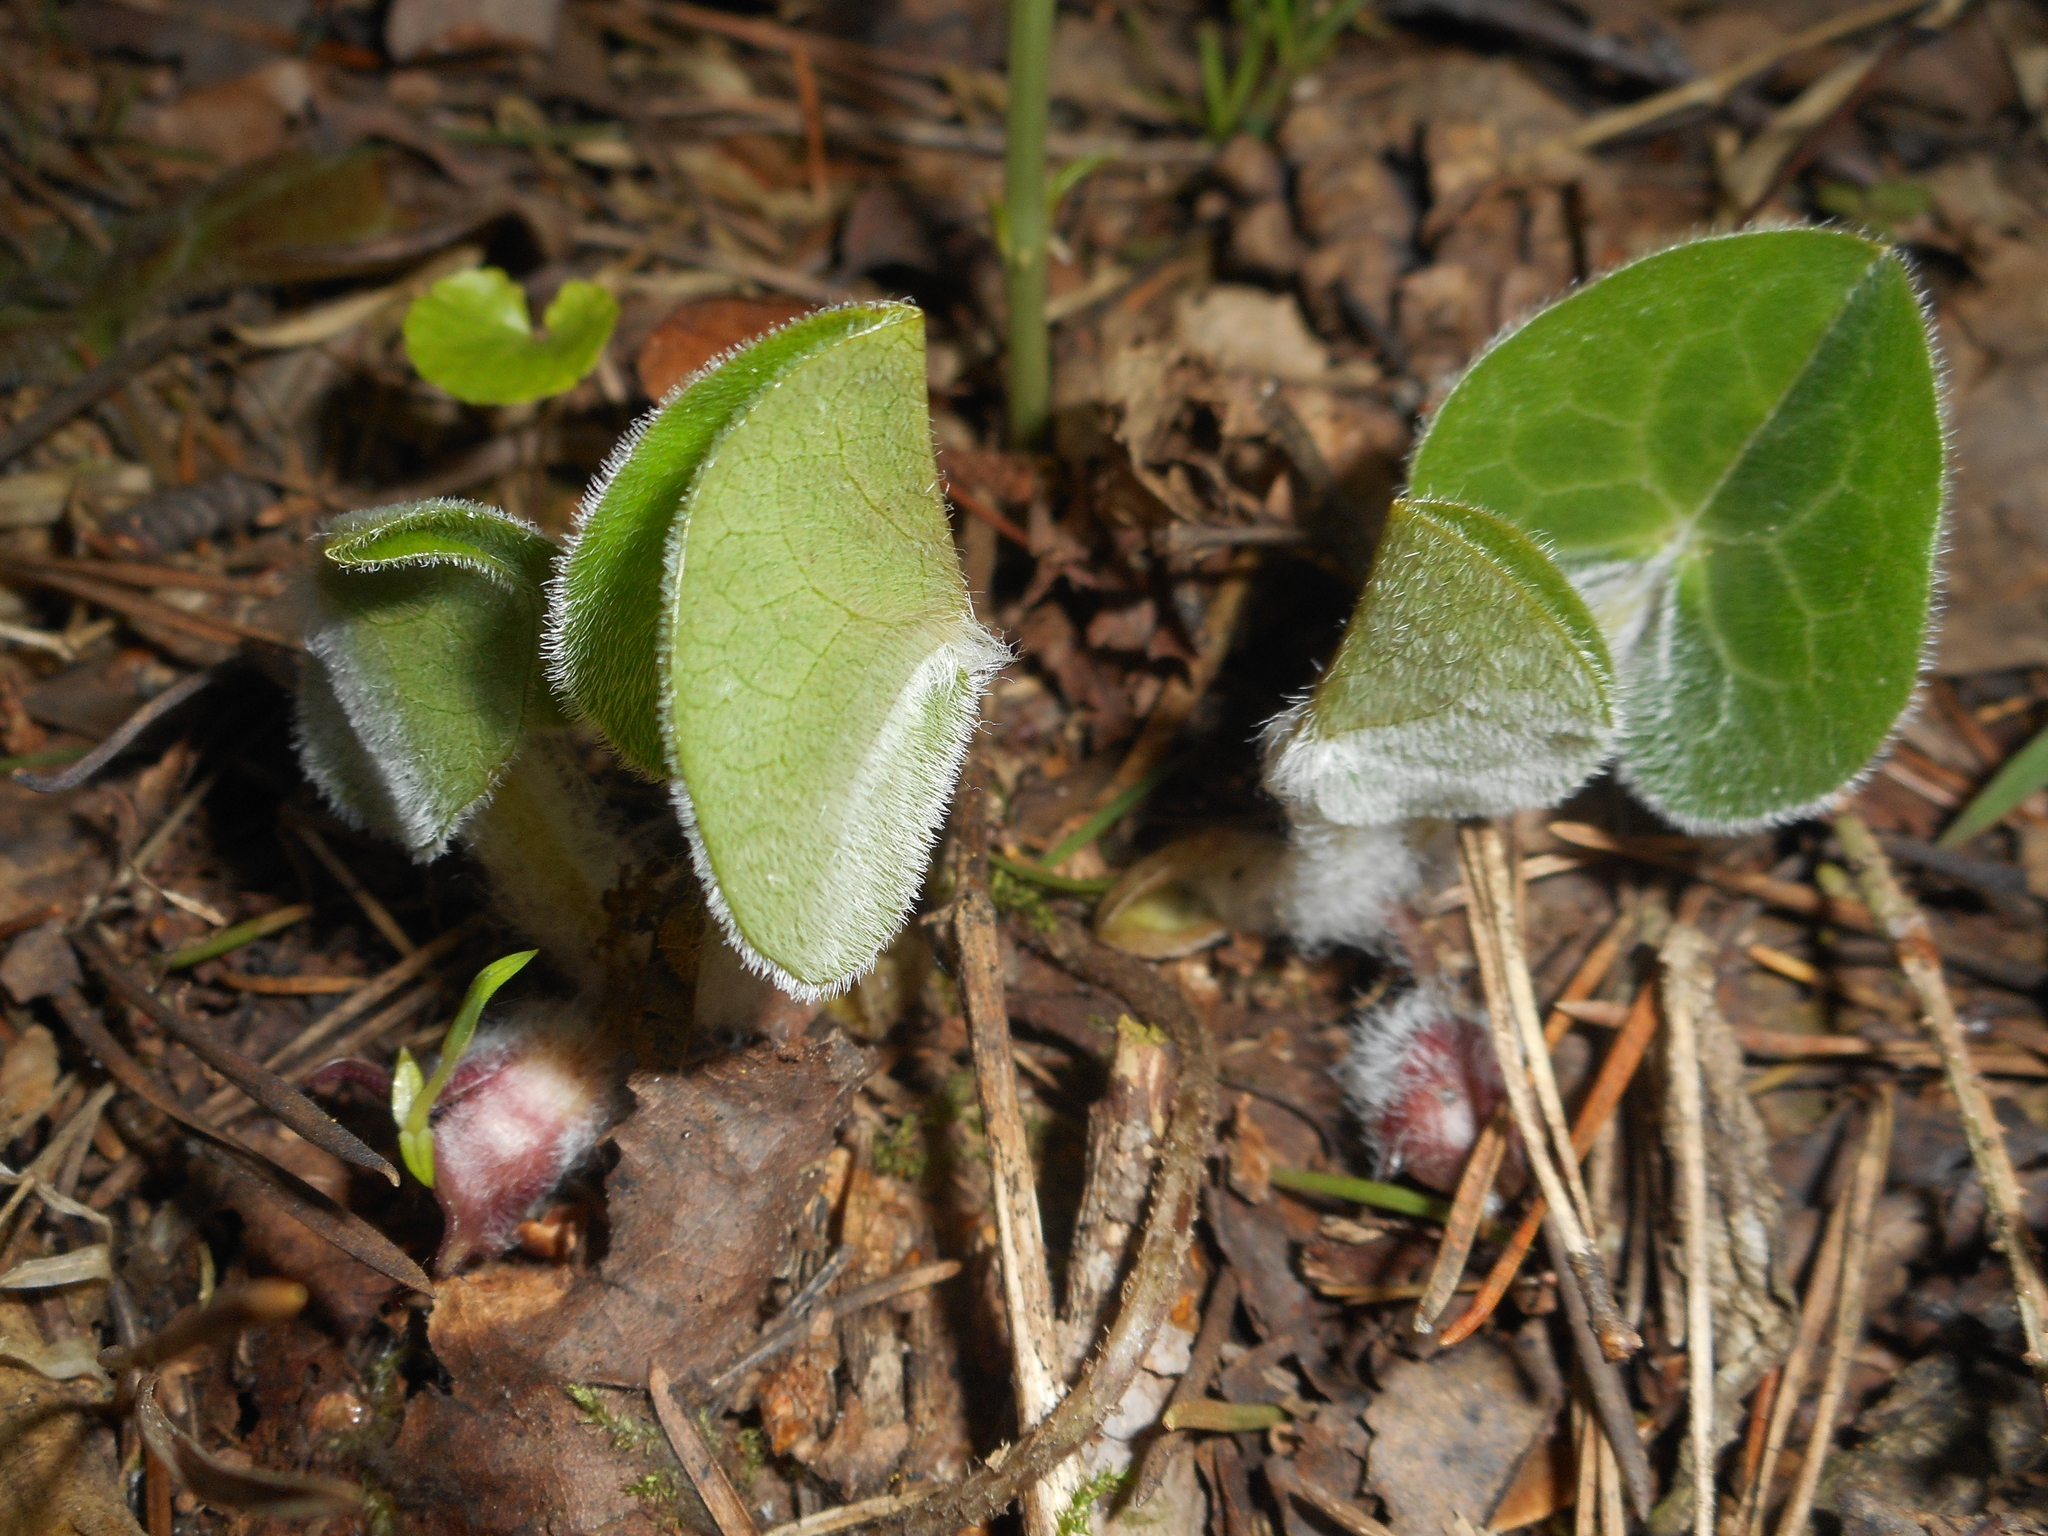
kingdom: Plantae
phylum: Tracheophyta
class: Magnoliopsida
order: Piperales
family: Aristolochiaceae
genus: Asarum
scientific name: Asarum europaeum
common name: Asarabacca
